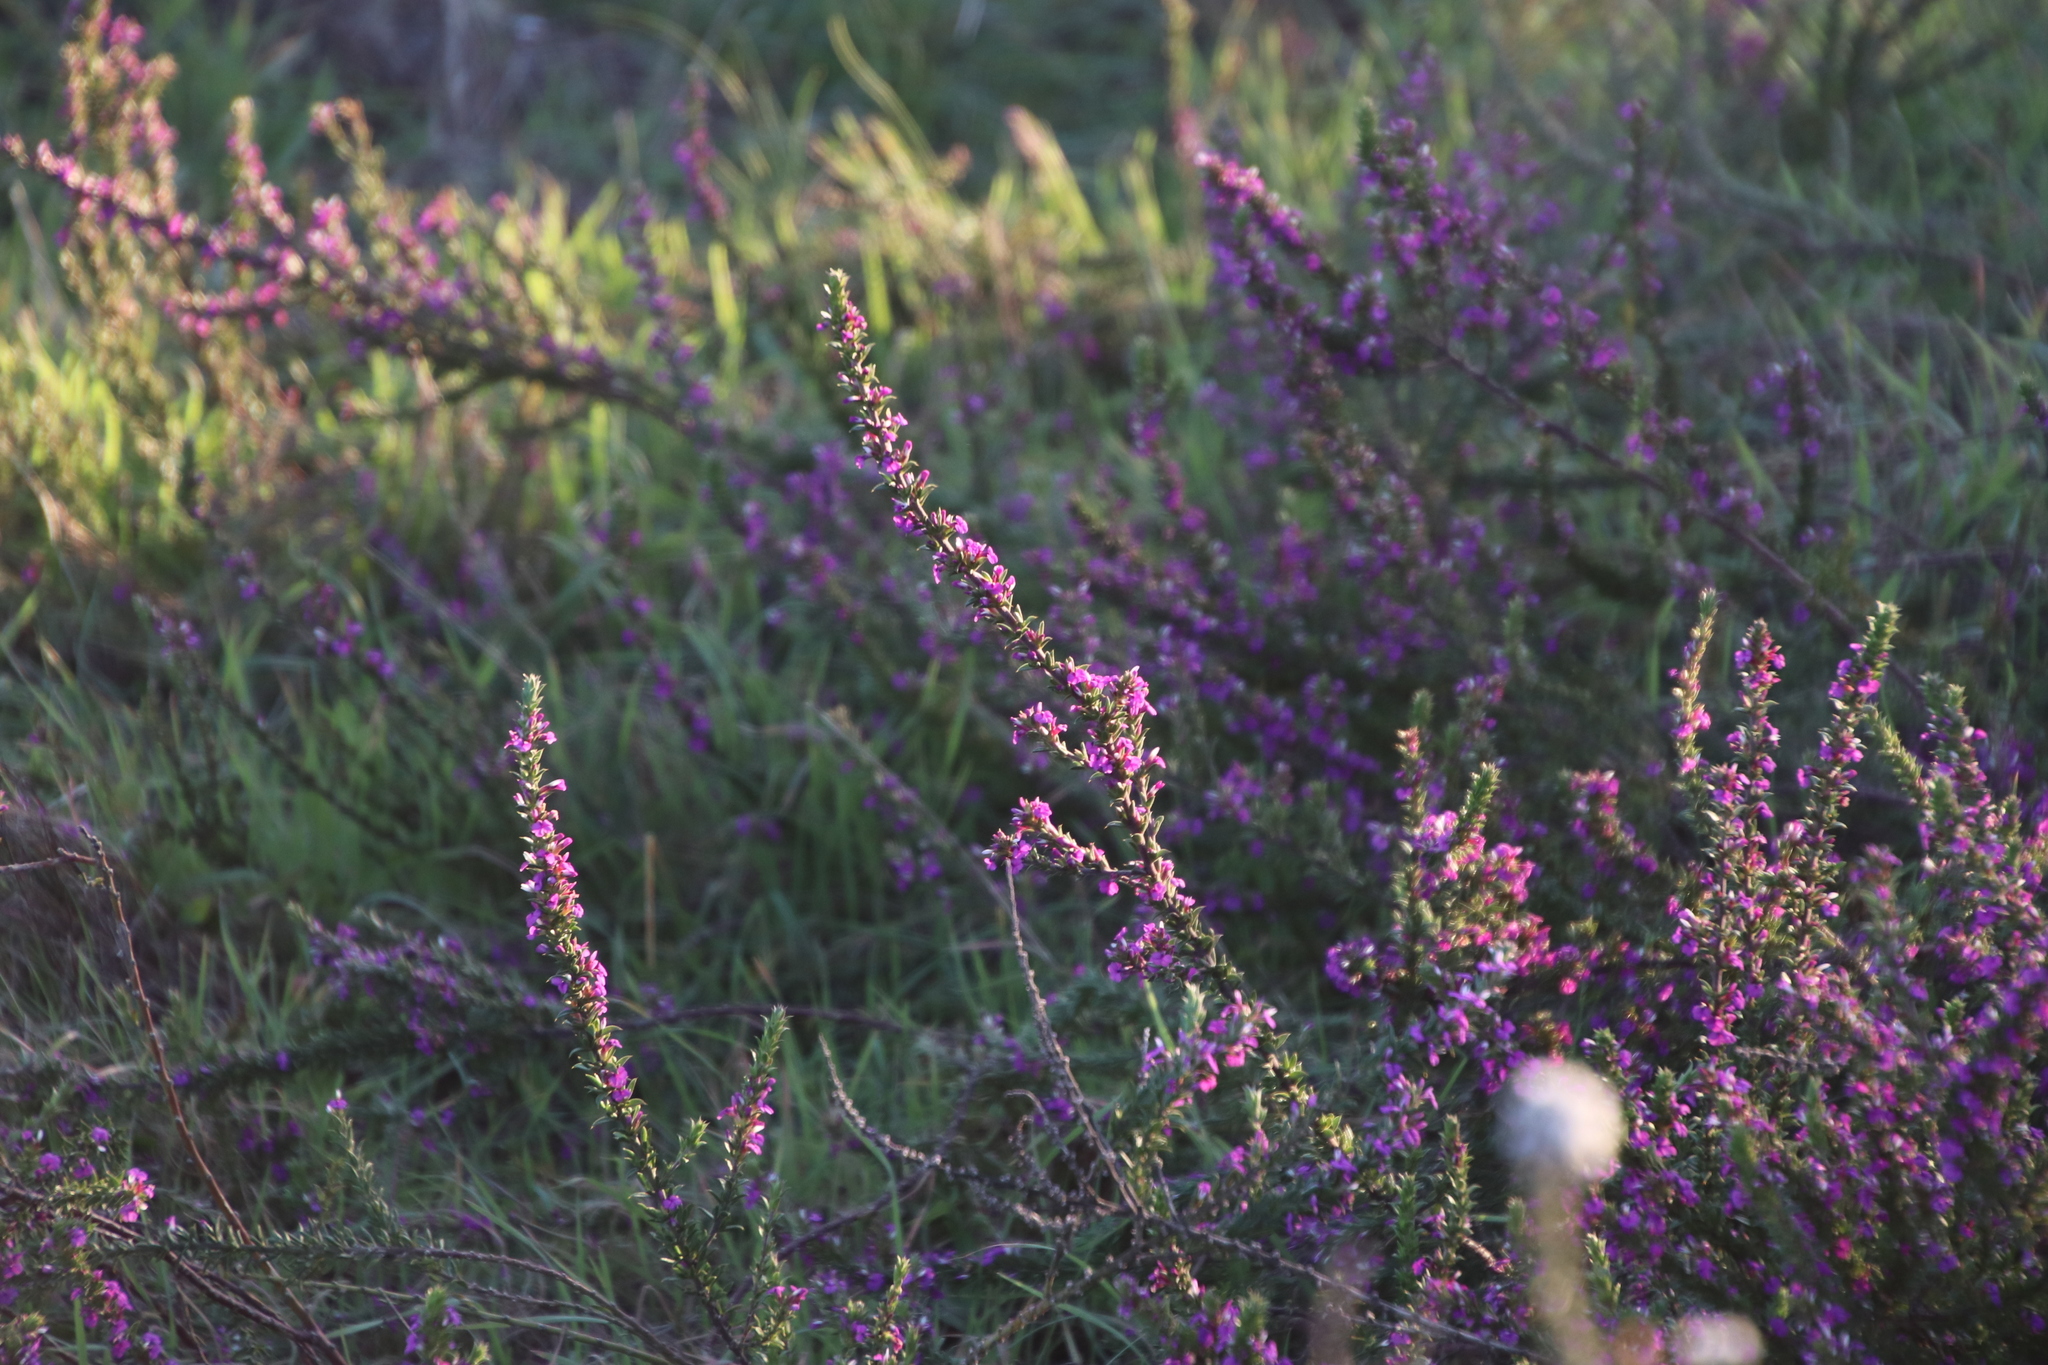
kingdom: Plantae
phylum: Tracheophyta
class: Magnoliopsida
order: Fabales
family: Polygalaceae
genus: Muraltia
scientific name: Muraltia heisteria
